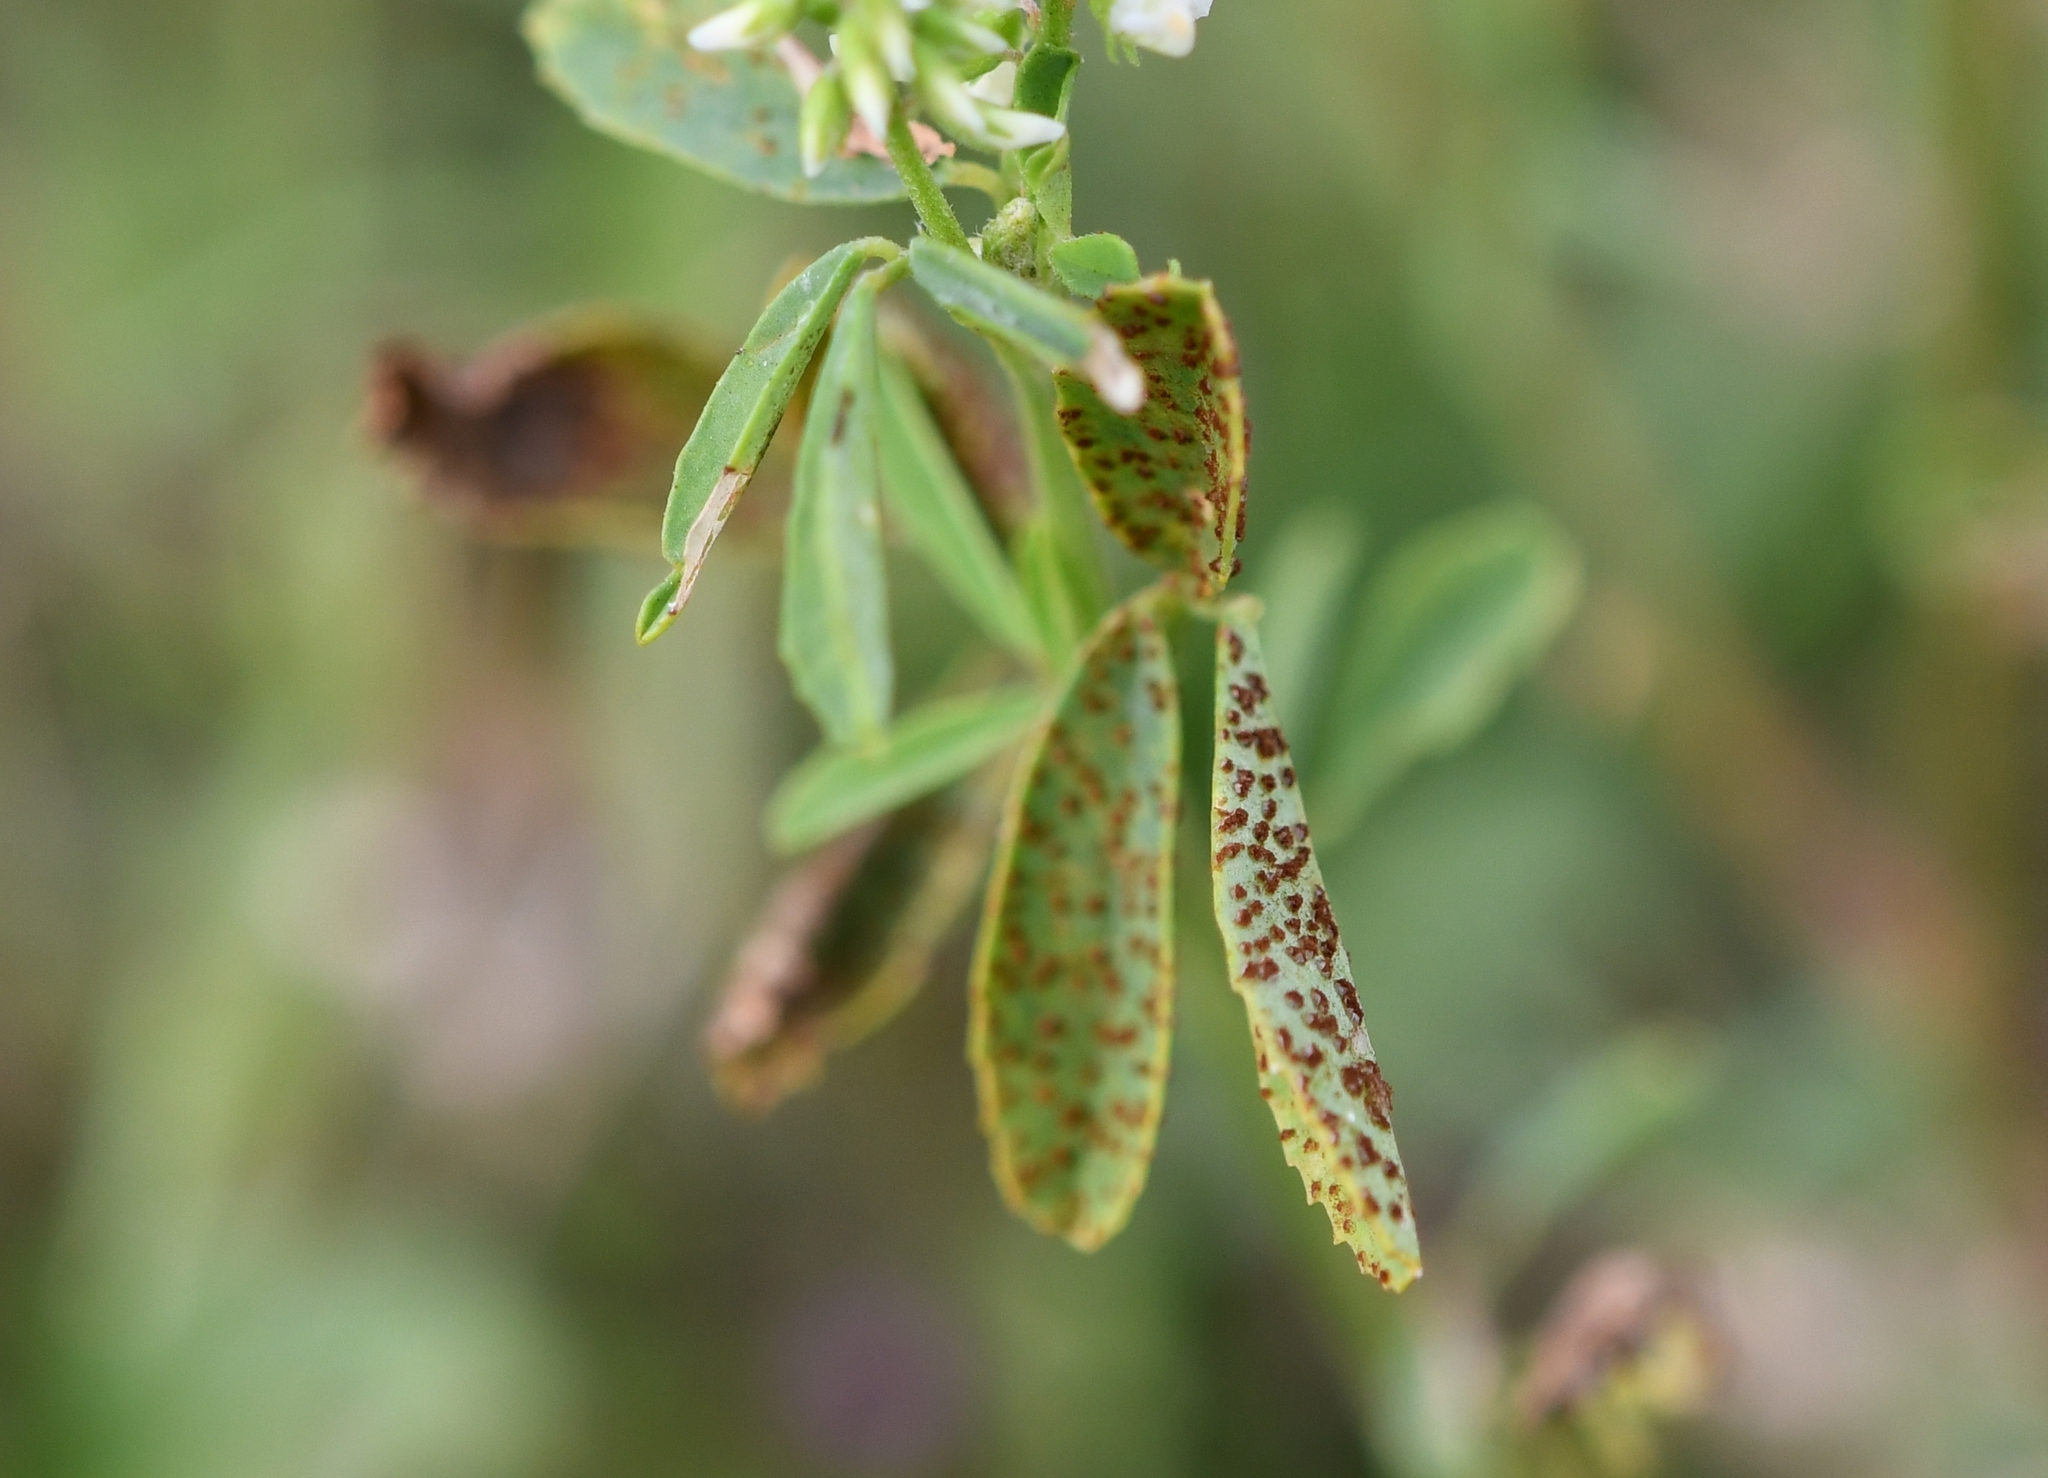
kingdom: Plantae
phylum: Tracheophyta
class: Magnoliopsida
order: Fabales
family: Fabaceae
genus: Melilotus
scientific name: Melilotus albus
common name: White melilot
